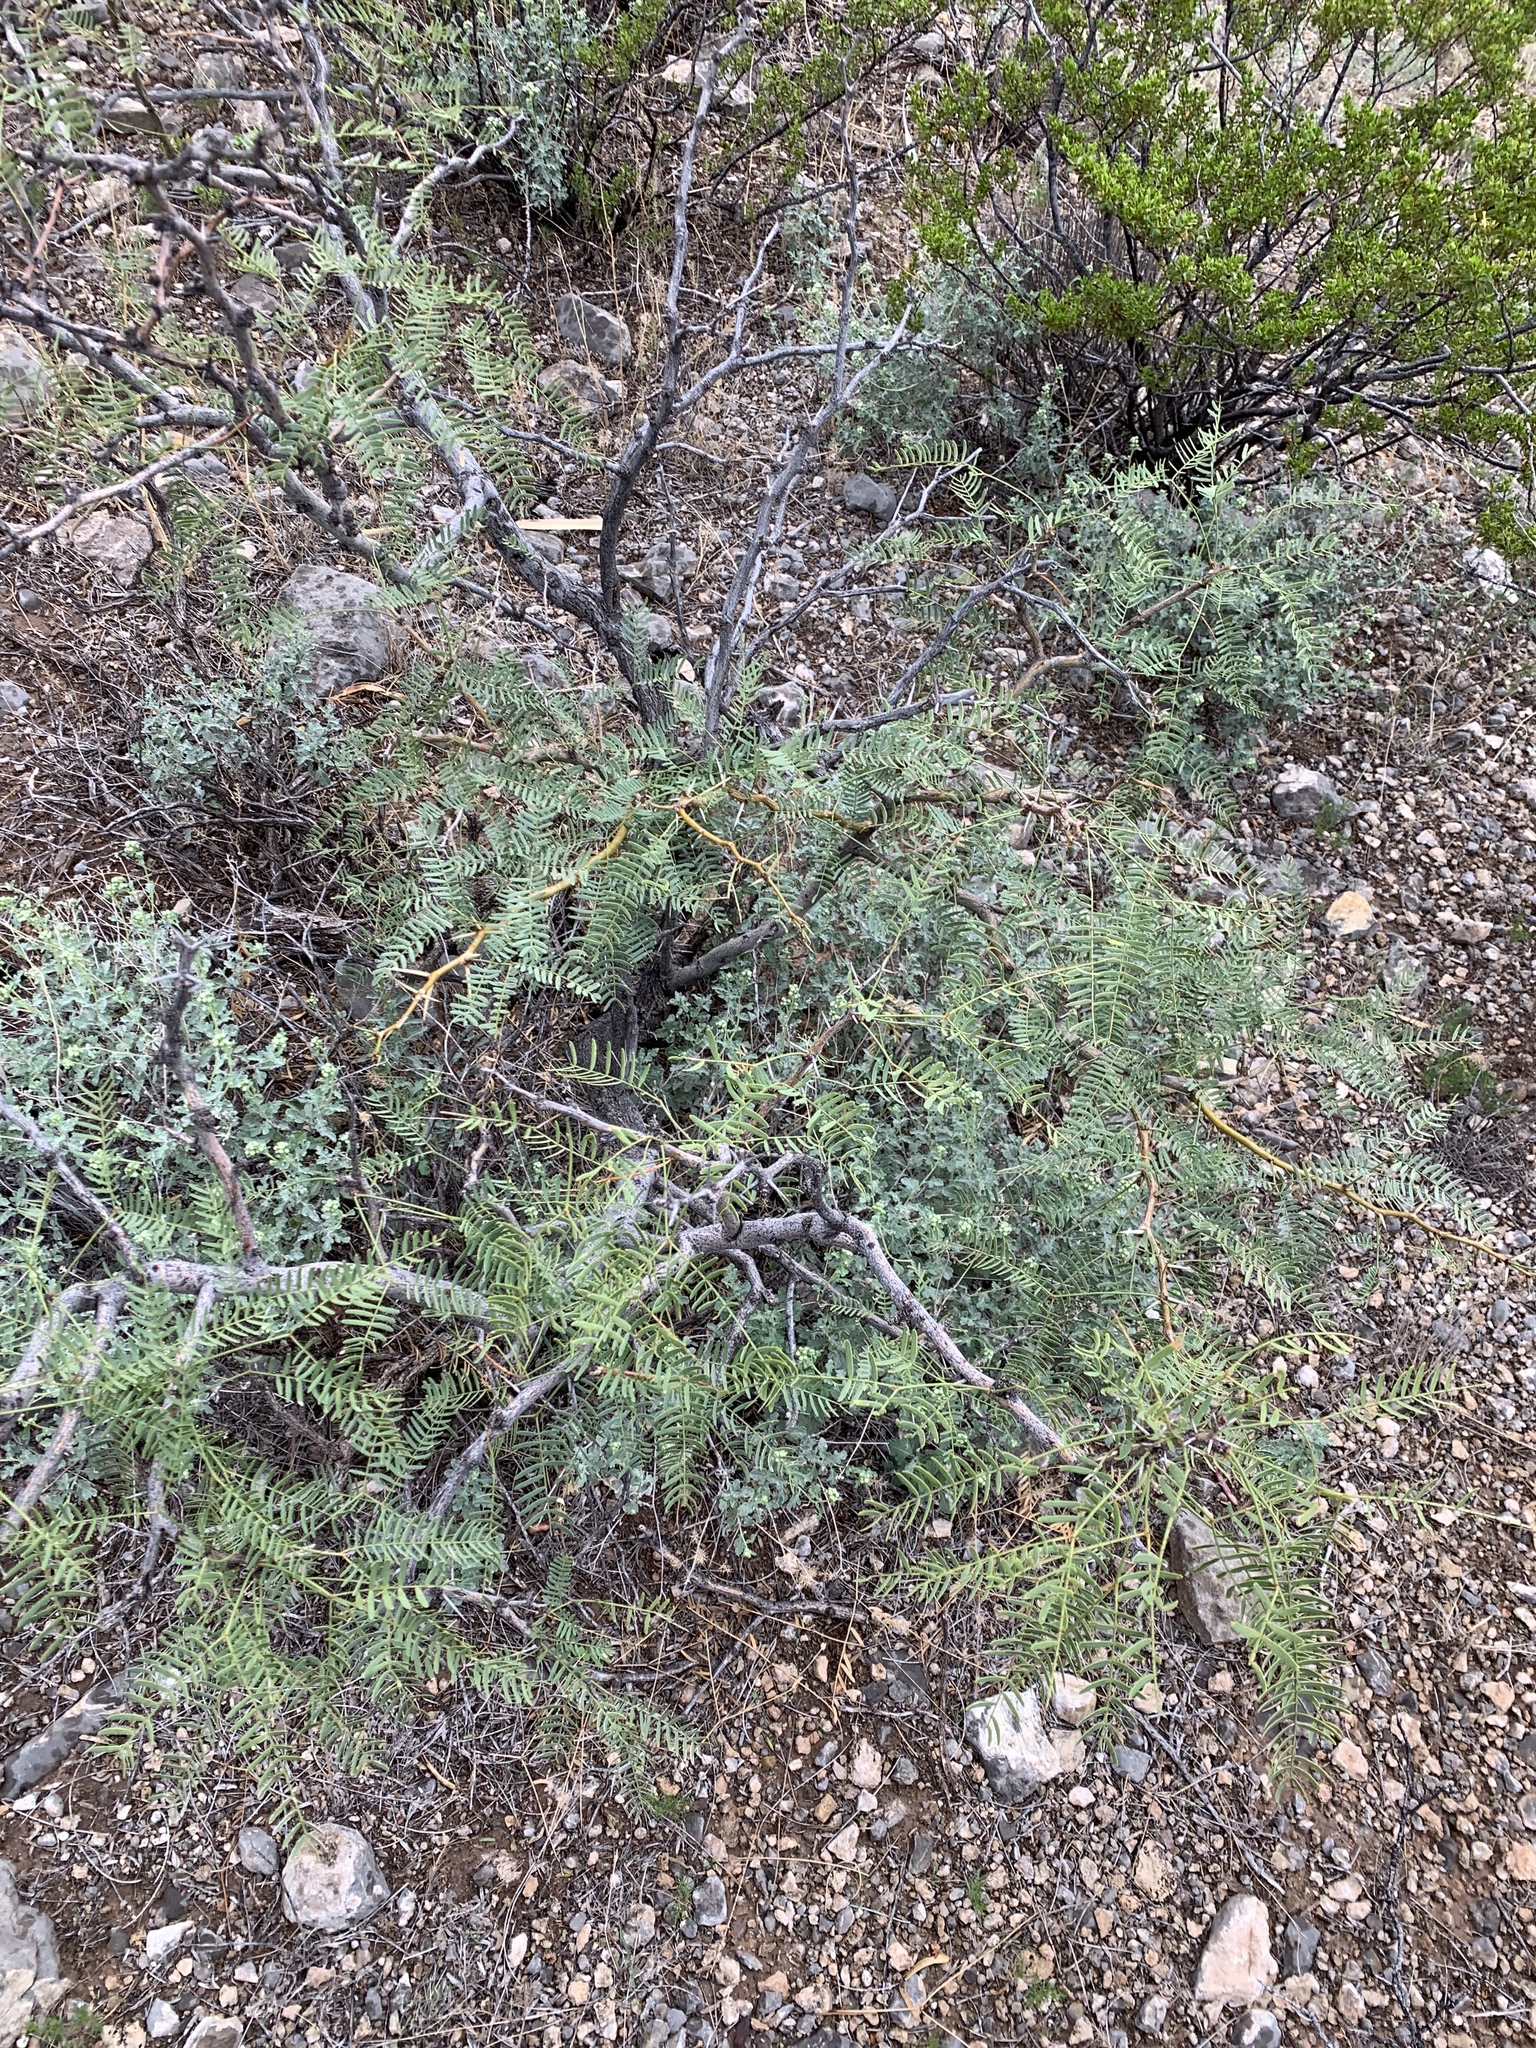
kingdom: Plantae
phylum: Tracheophyta
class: Magnoliopsida
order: Fabales
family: Fabaceae
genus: Prosopis
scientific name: Prosopis glandulosa
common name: Honey mesquite
